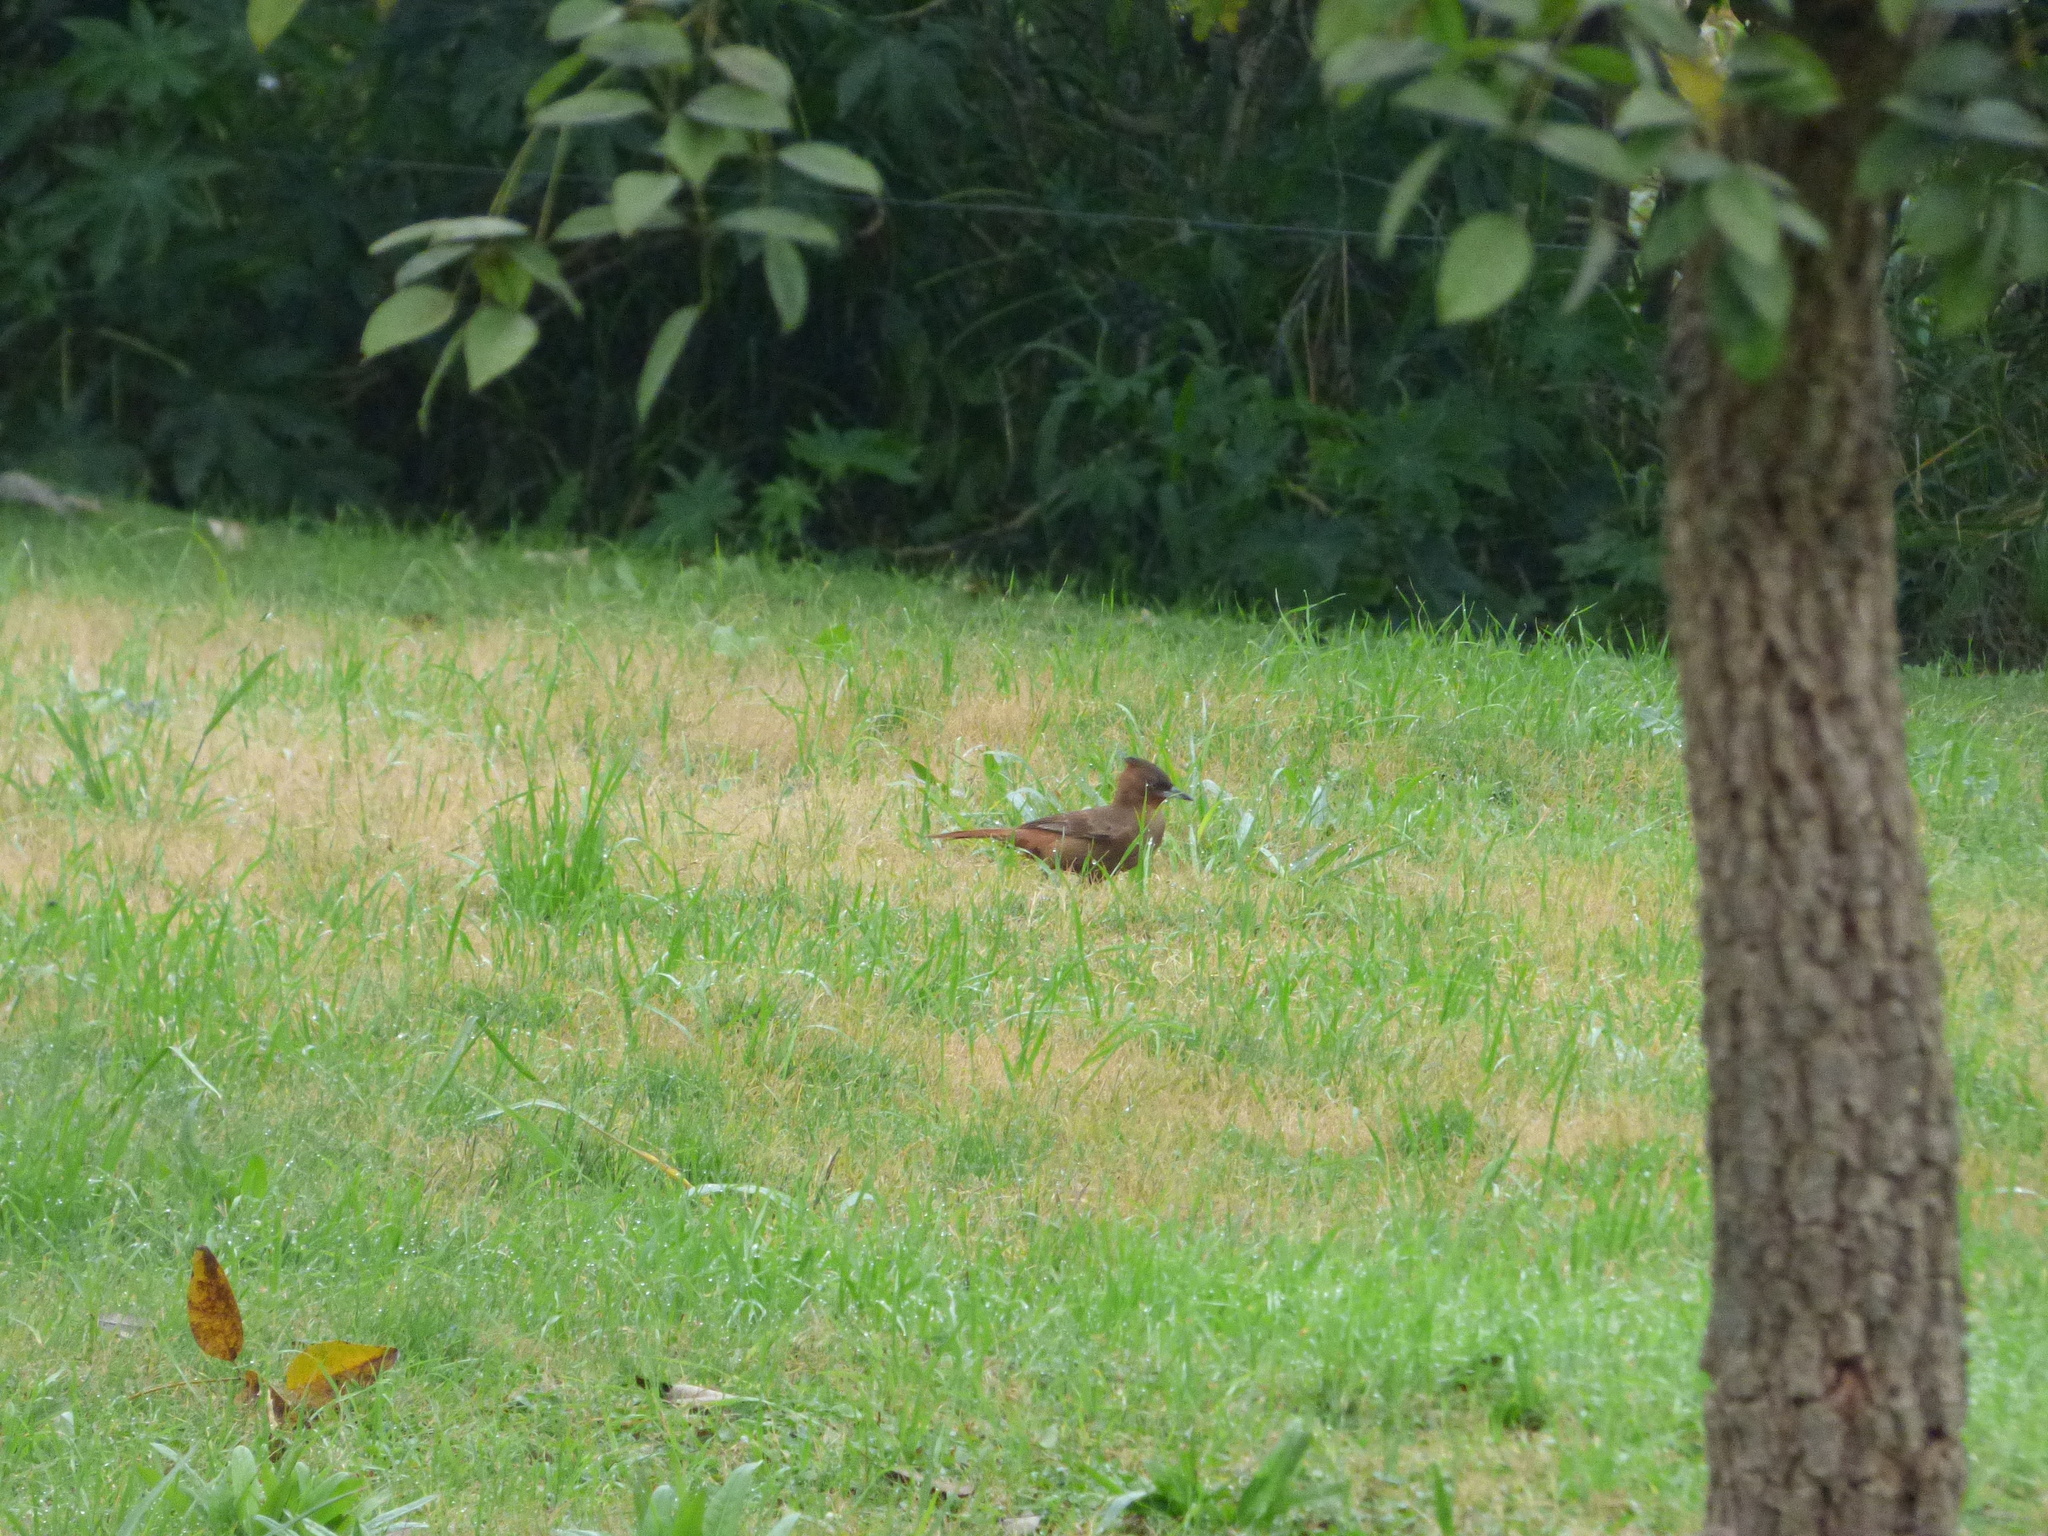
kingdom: Animalia
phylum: Chordata
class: Aves
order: Passeriformes
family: Furnariidae
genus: Pseudoseisura
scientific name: Pseudoseisura lophotes
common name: Brown cacholote
